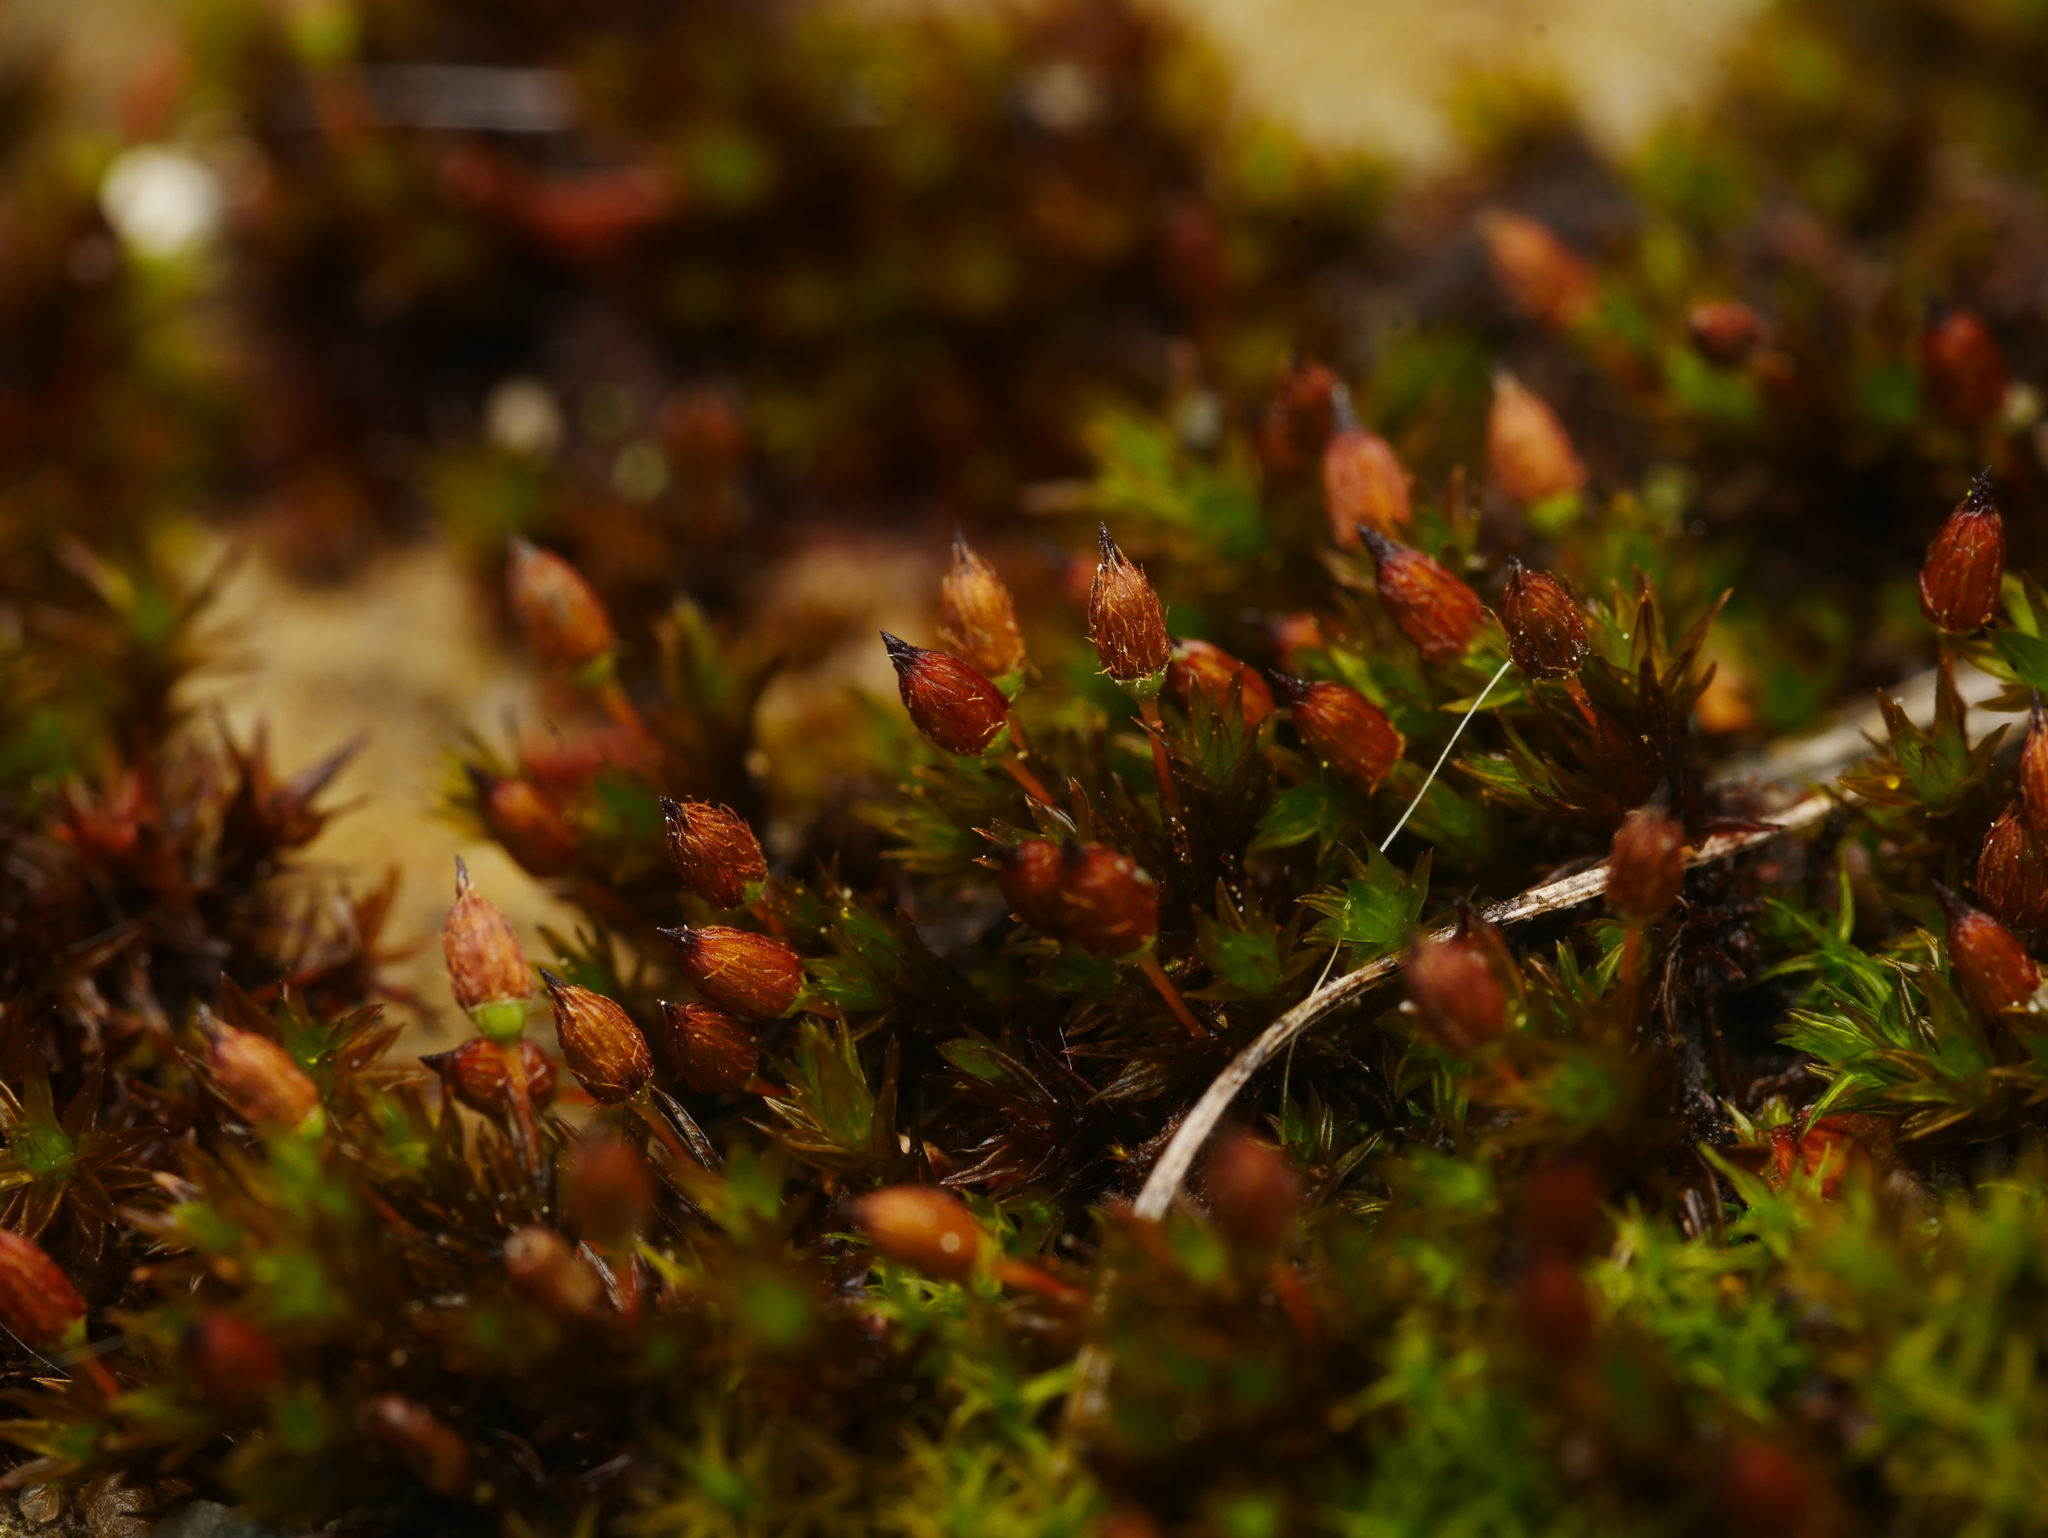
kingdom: Plantae
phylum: Bryophyta
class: Bryopsida
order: Orthotrichales
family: Orthotrichaceae
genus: Orthotrichum
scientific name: Orthotrichum anomalum
